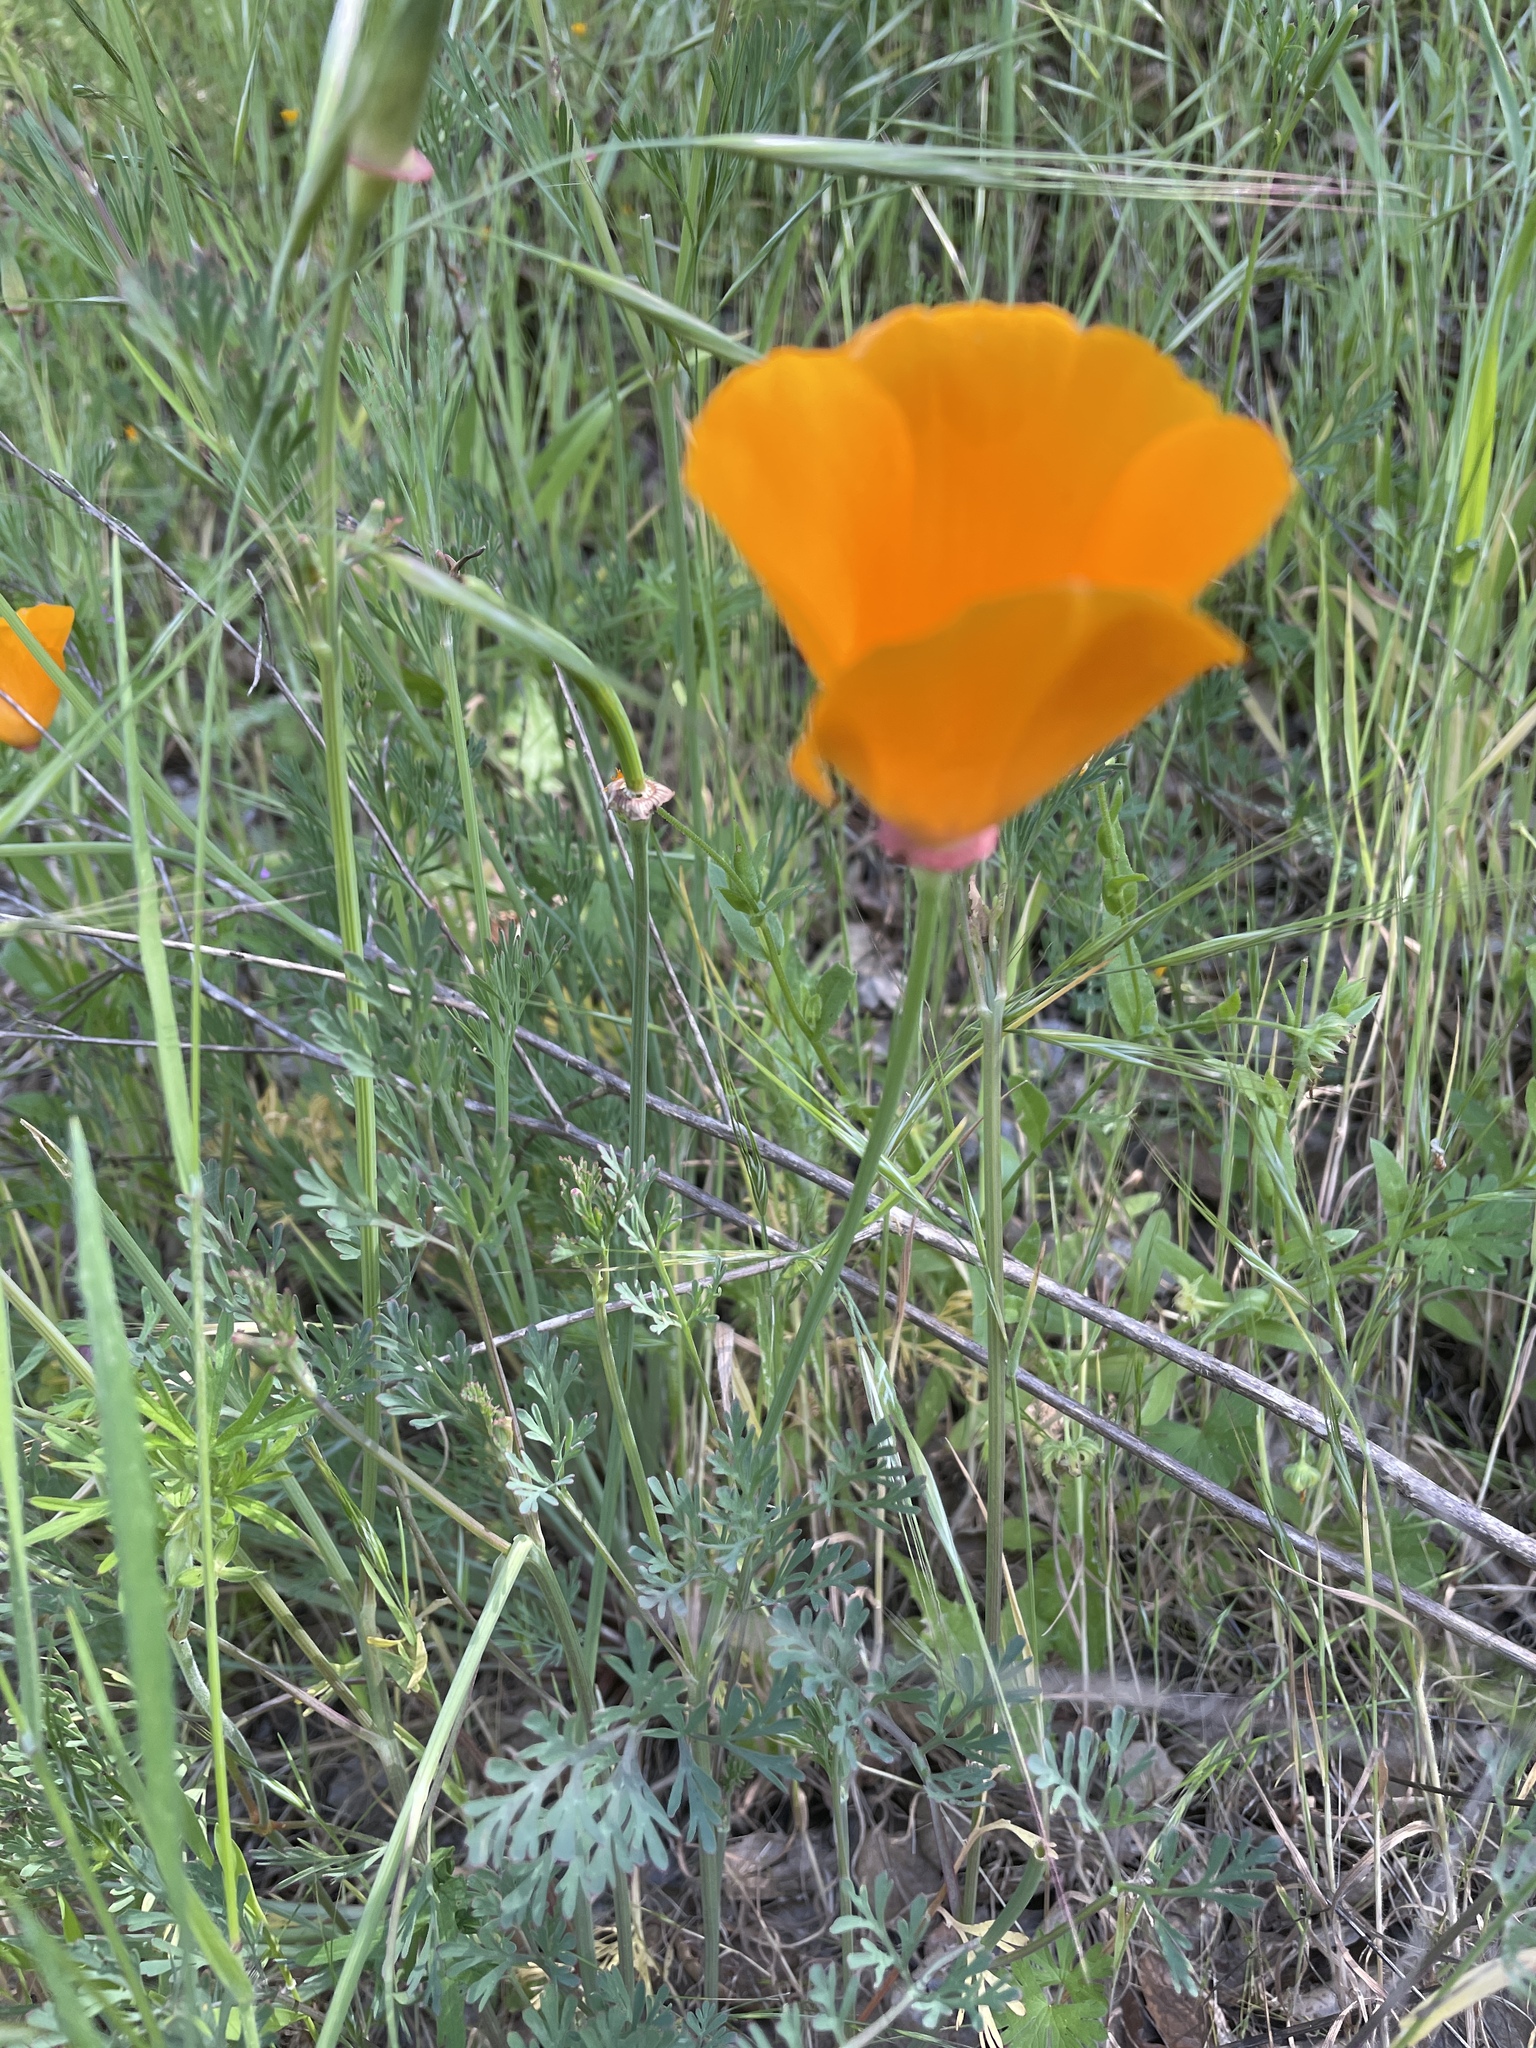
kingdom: Plantae
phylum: Tracheophyta
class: Magnoliopsida
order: Ranunculales
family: Papaveraceae
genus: Eschscholzia
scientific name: Eschscholzia californica
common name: California poppy
